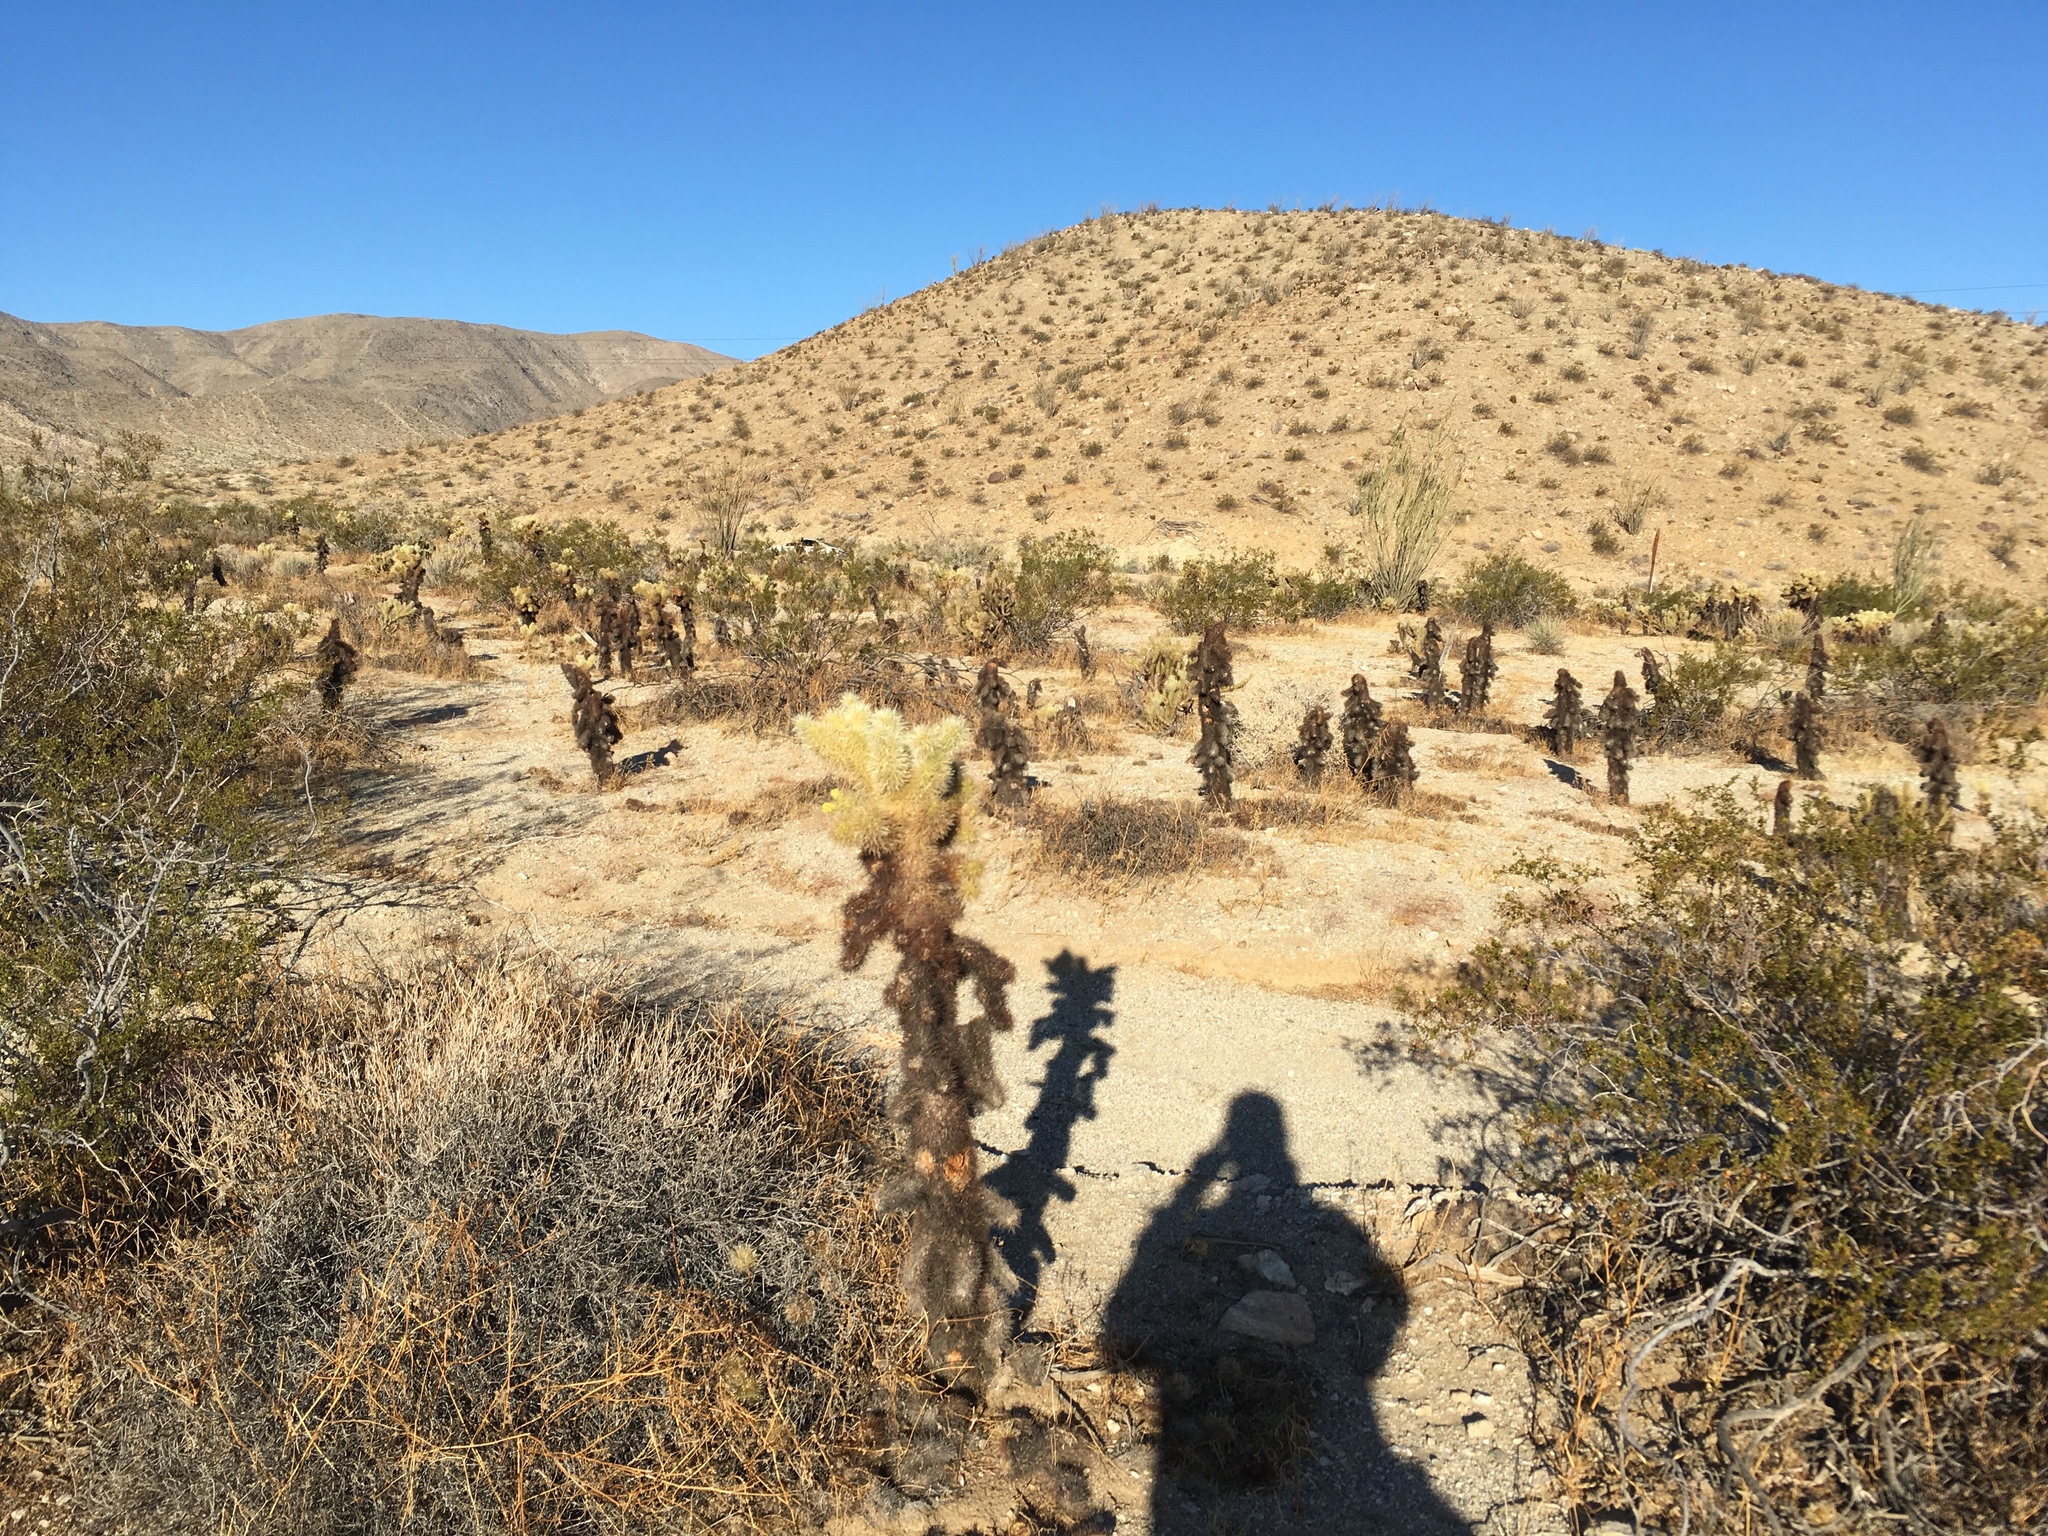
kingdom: Plantae
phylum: Tracheophyta
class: Magnoliopsida
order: Caryophyllales
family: Cactaceae
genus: Cylindropuntia
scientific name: Cylindropuntia fosbergii
